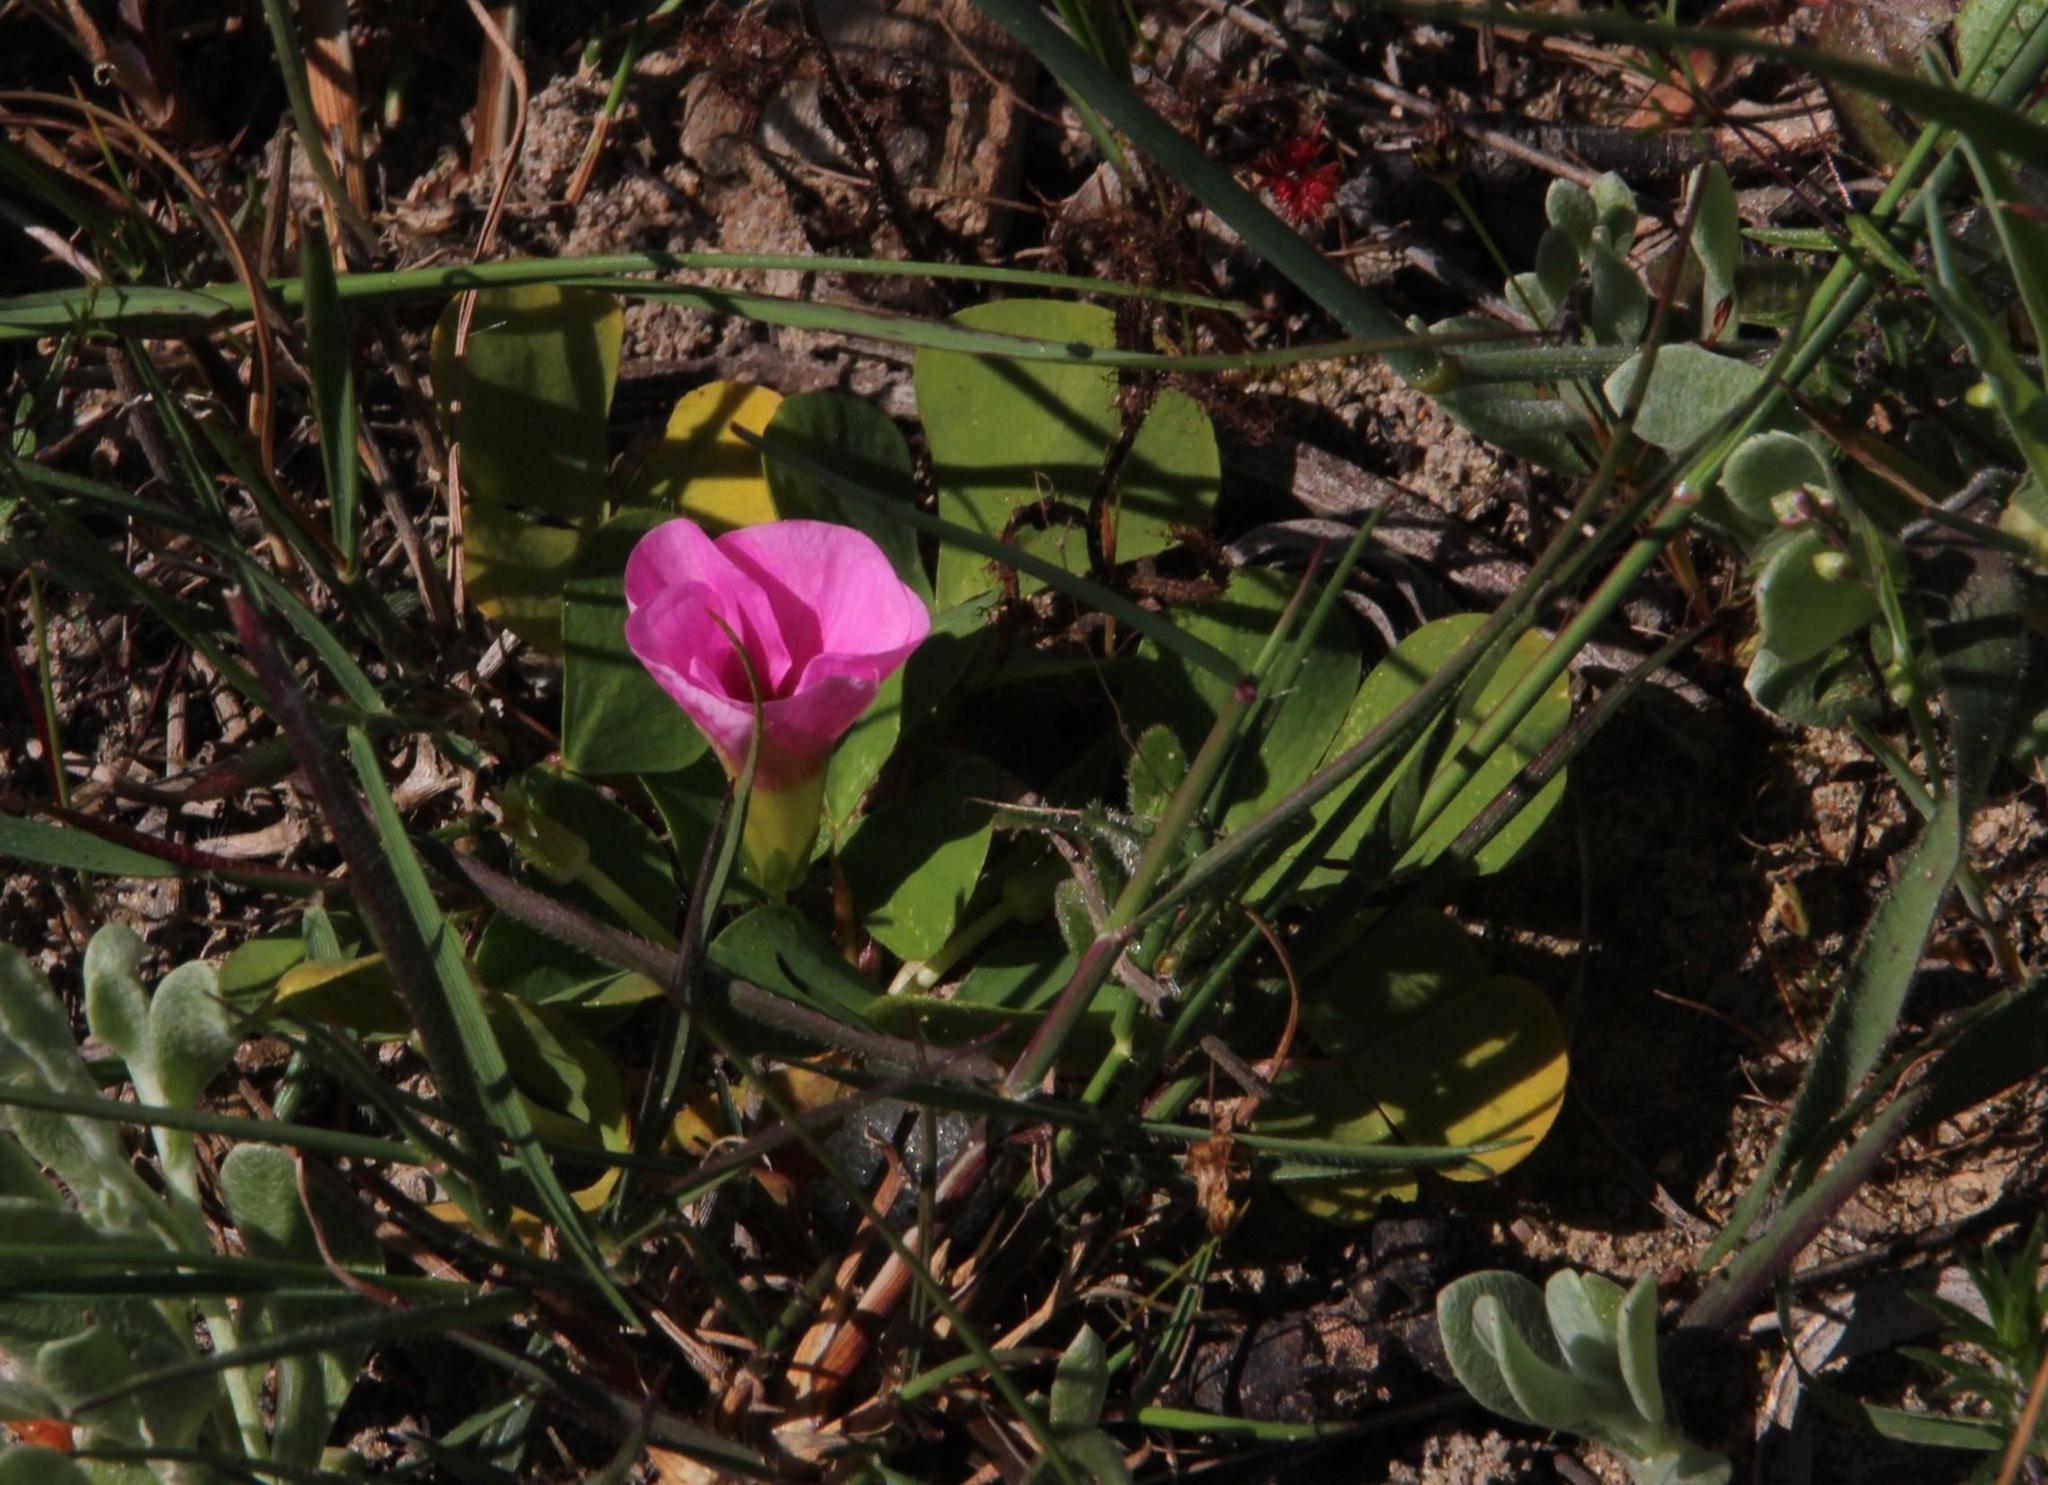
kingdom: Plantae
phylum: Tracheophyta
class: Magnoliopsida
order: Oxalidales
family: Oxalidaceae
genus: Oxalis
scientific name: Oxalis purpurea
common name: Purple woodsorrel
